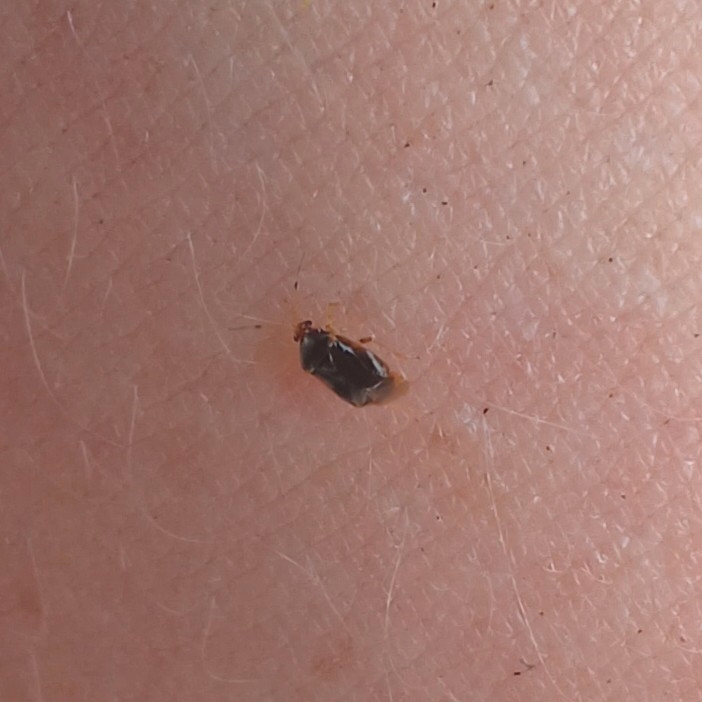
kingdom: Animalia
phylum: Arthropoda
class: Insecta
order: Hemiptera
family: Miridae
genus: Monalocoris
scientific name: Monalocoris filicis
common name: Bracken bug
